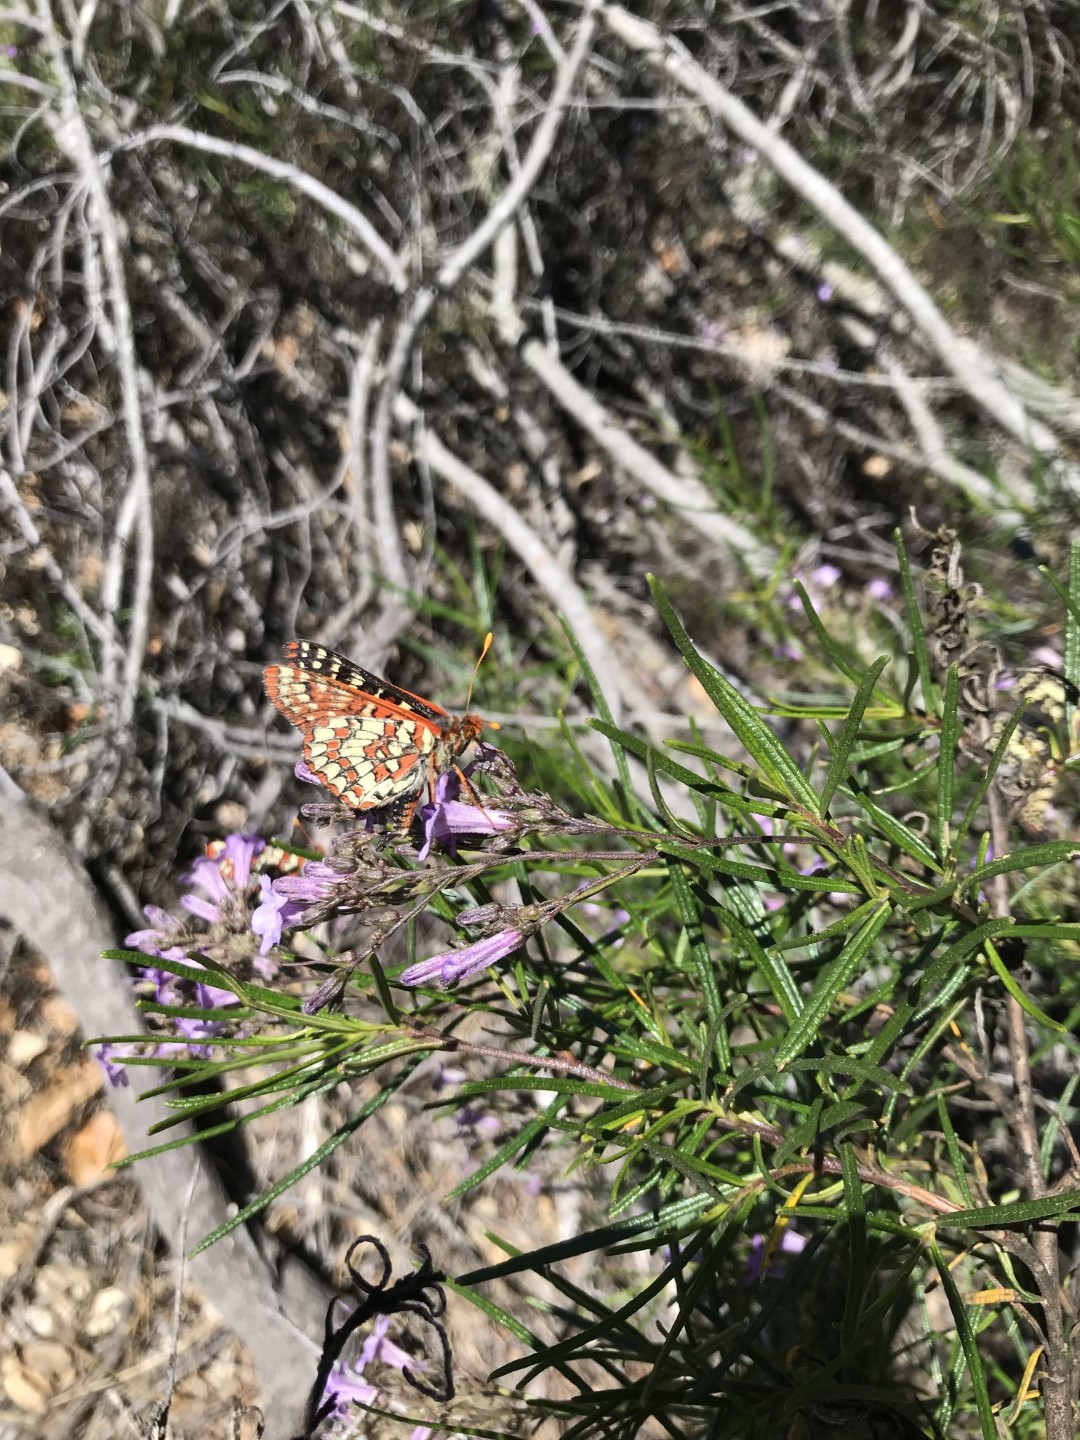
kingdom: Animalia
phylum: Arthropoda
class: Insecta
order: Lepidoptera
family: Nymphalidae
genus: Occidryas
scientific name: Occidryas chalcedona
